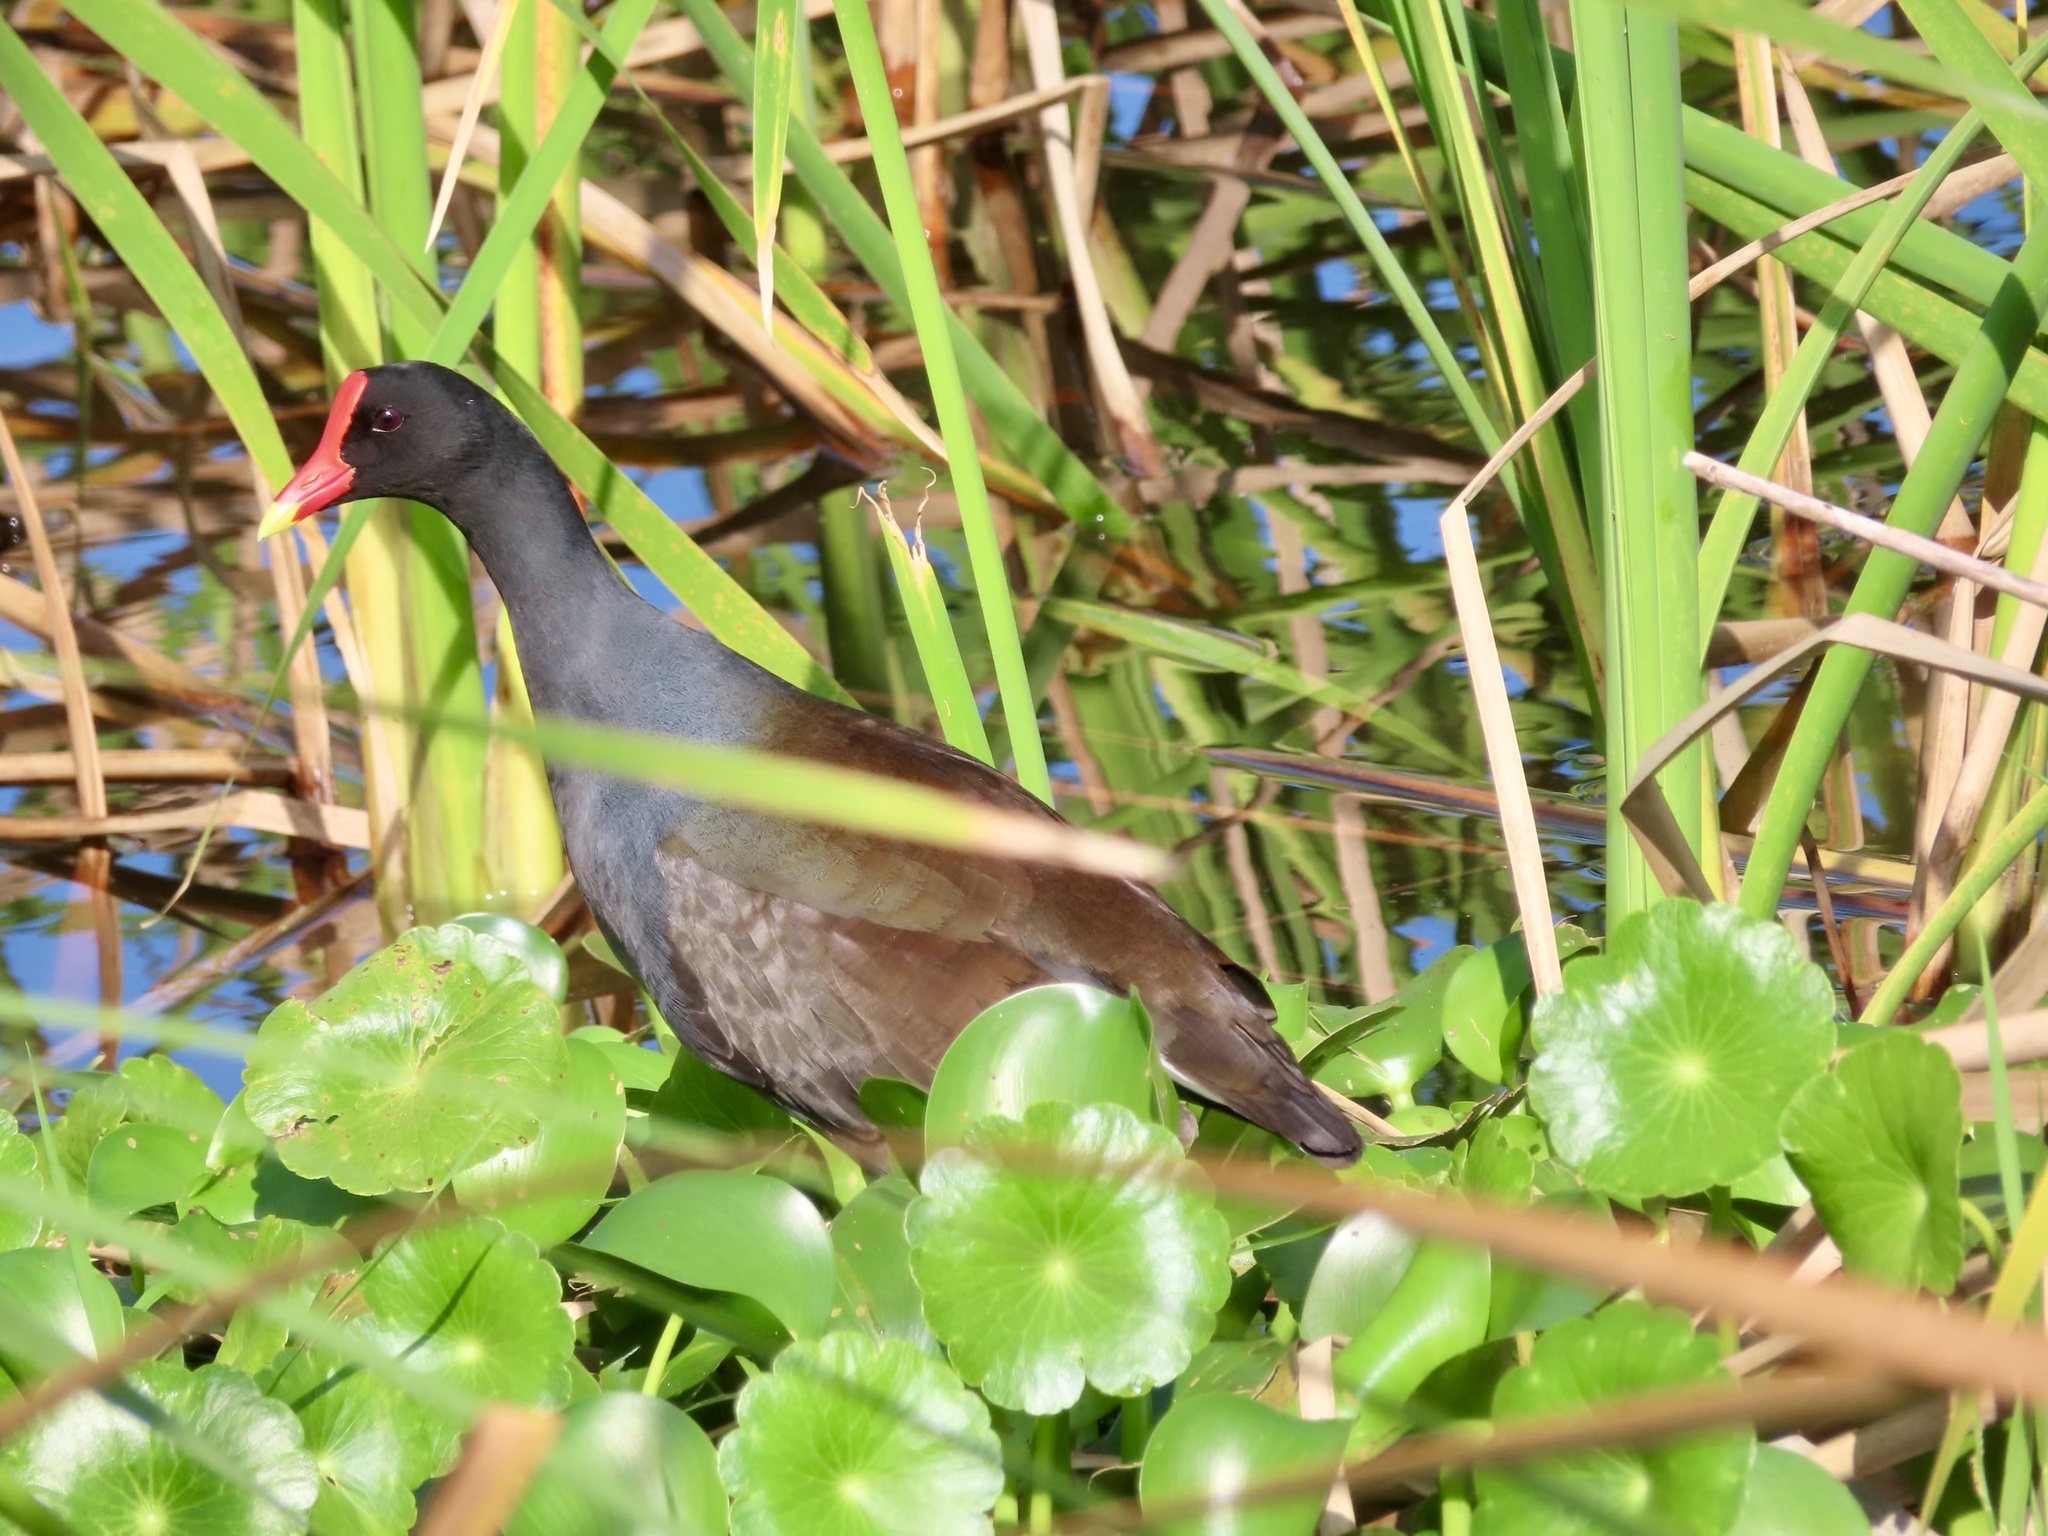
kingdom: Animalia
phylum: Chordata
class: Aves
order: Gruiformes
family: Rallidae
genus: Gallinula
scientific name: Gallinula chloropus
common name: Common moorhen
